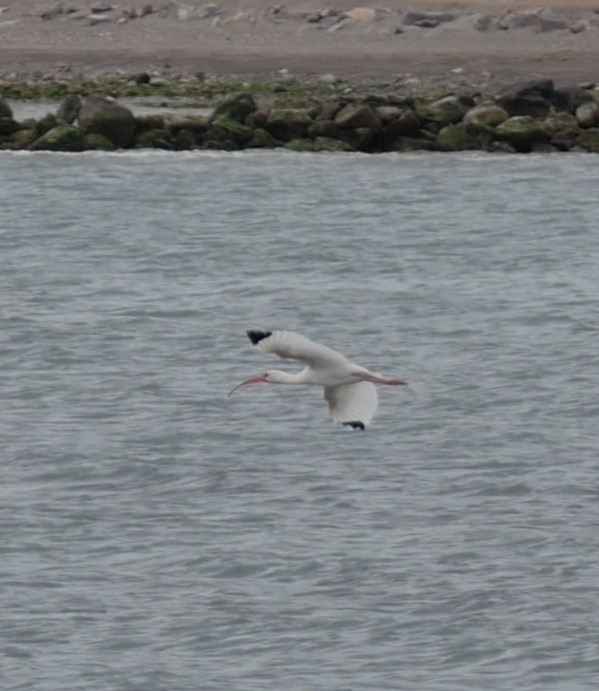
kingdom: Animalia
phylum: Chordata
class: Aves
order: Pelecaniformes
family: Threskiornithidae
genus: Eudocimus
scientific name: Eudocimus albus
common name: White ibis
